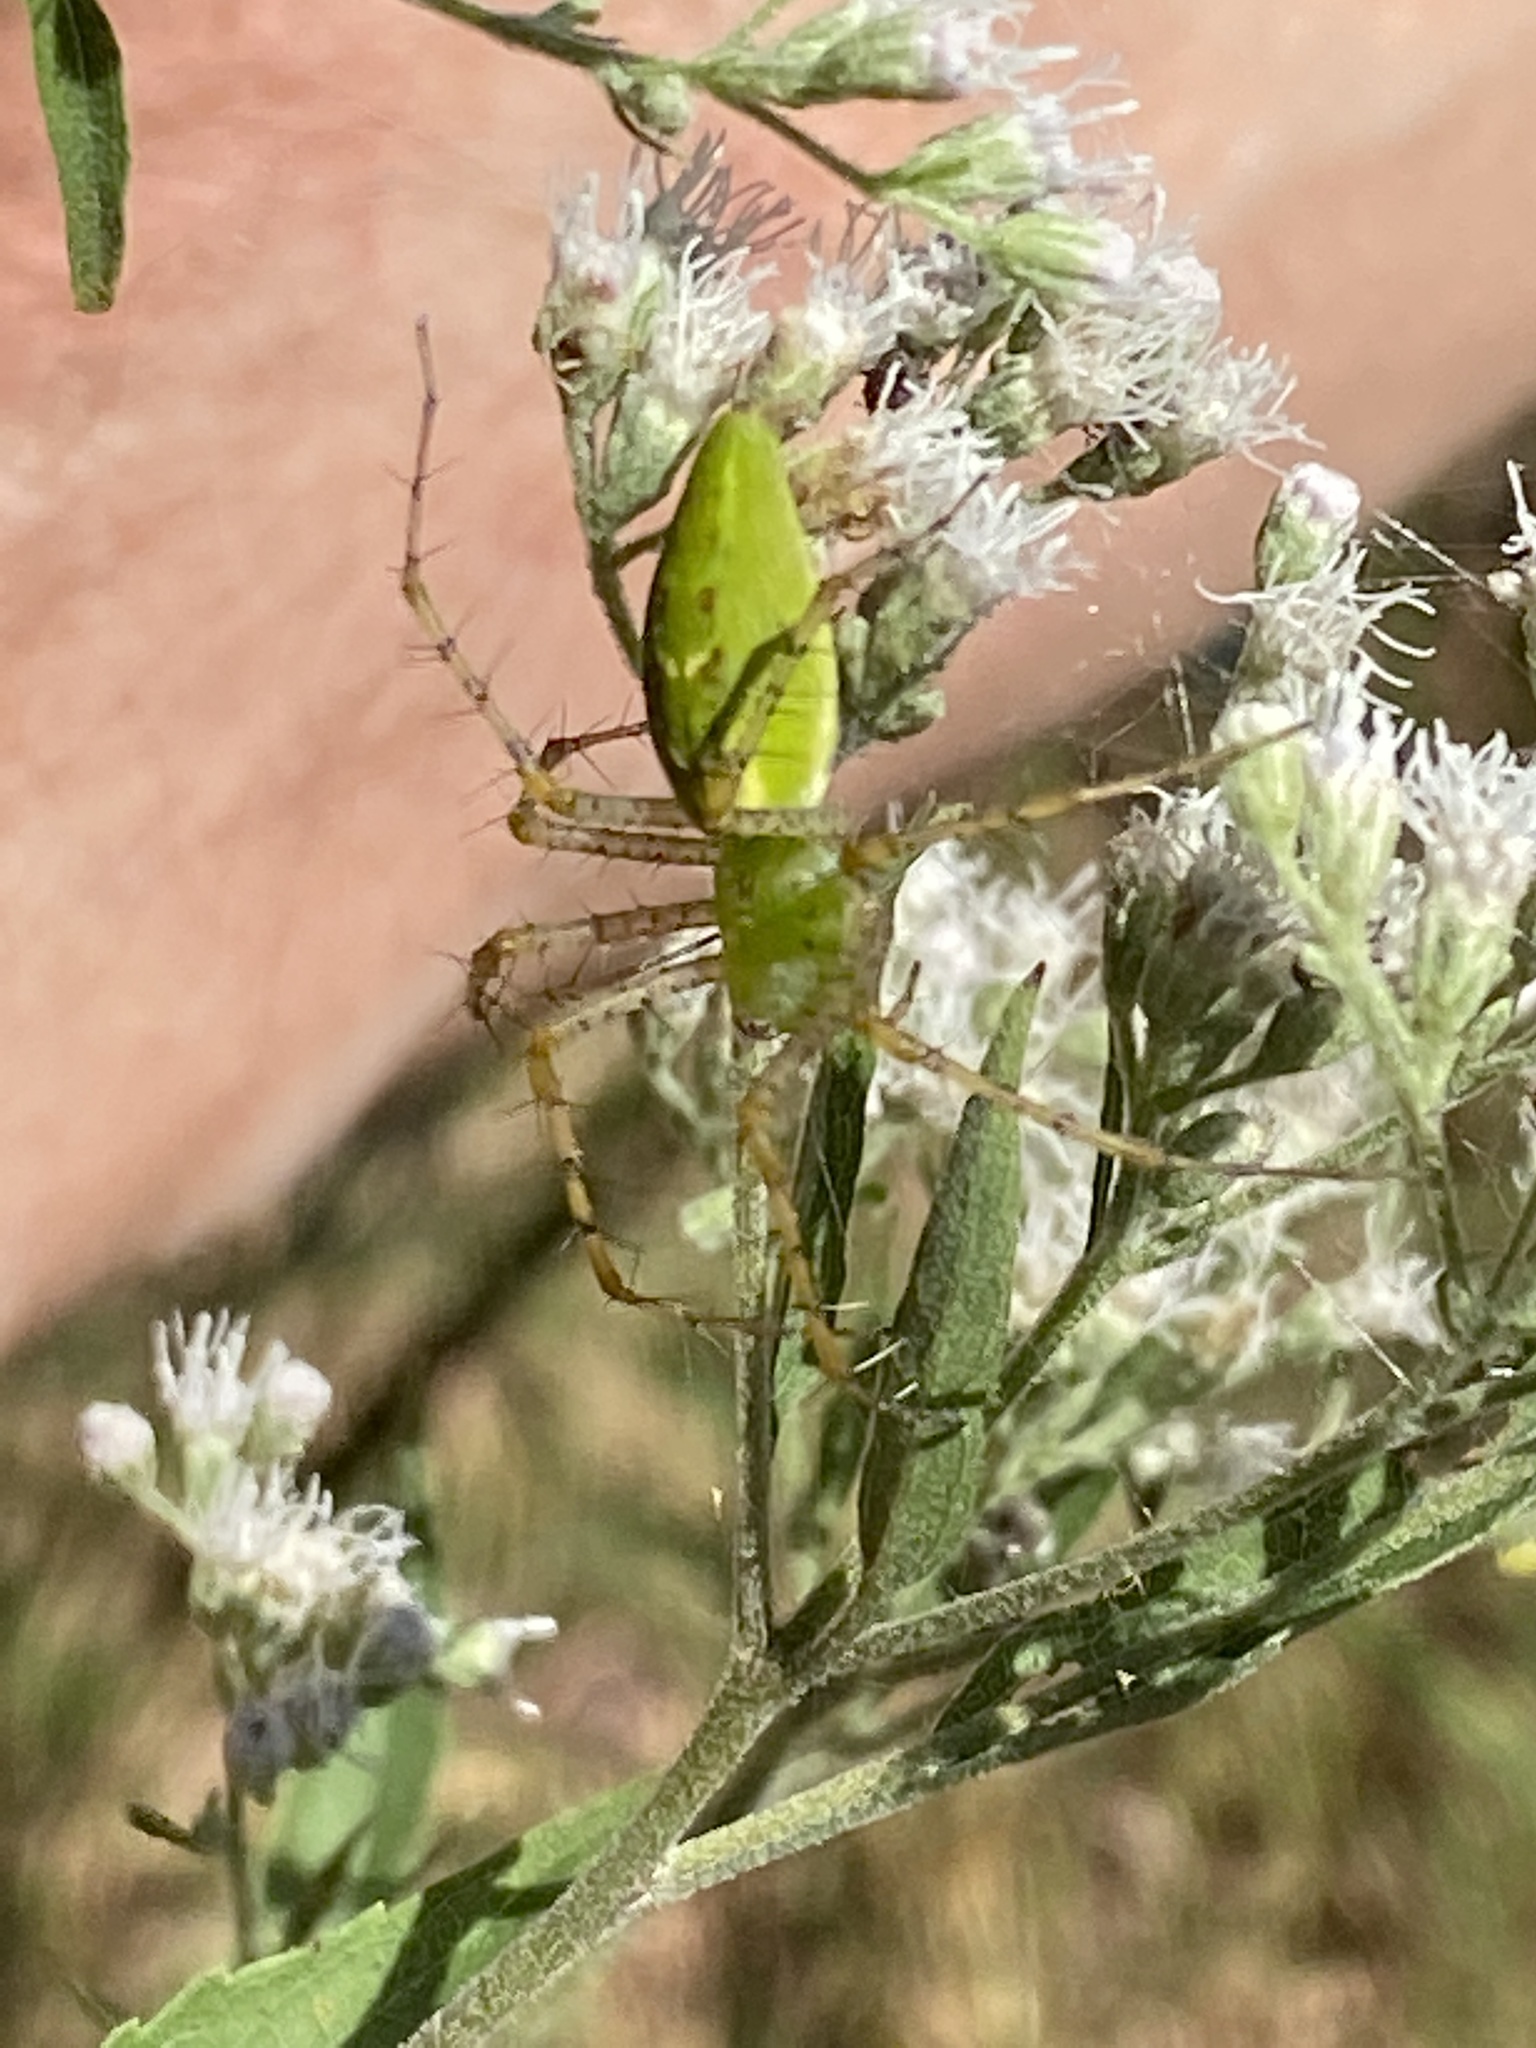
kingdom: Animalia
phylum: Arthropoda
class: Arachnida
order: Araneae
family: Oxyopidae
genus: Peucetia
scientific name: Peucetia viridans
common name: Lynx spiders
